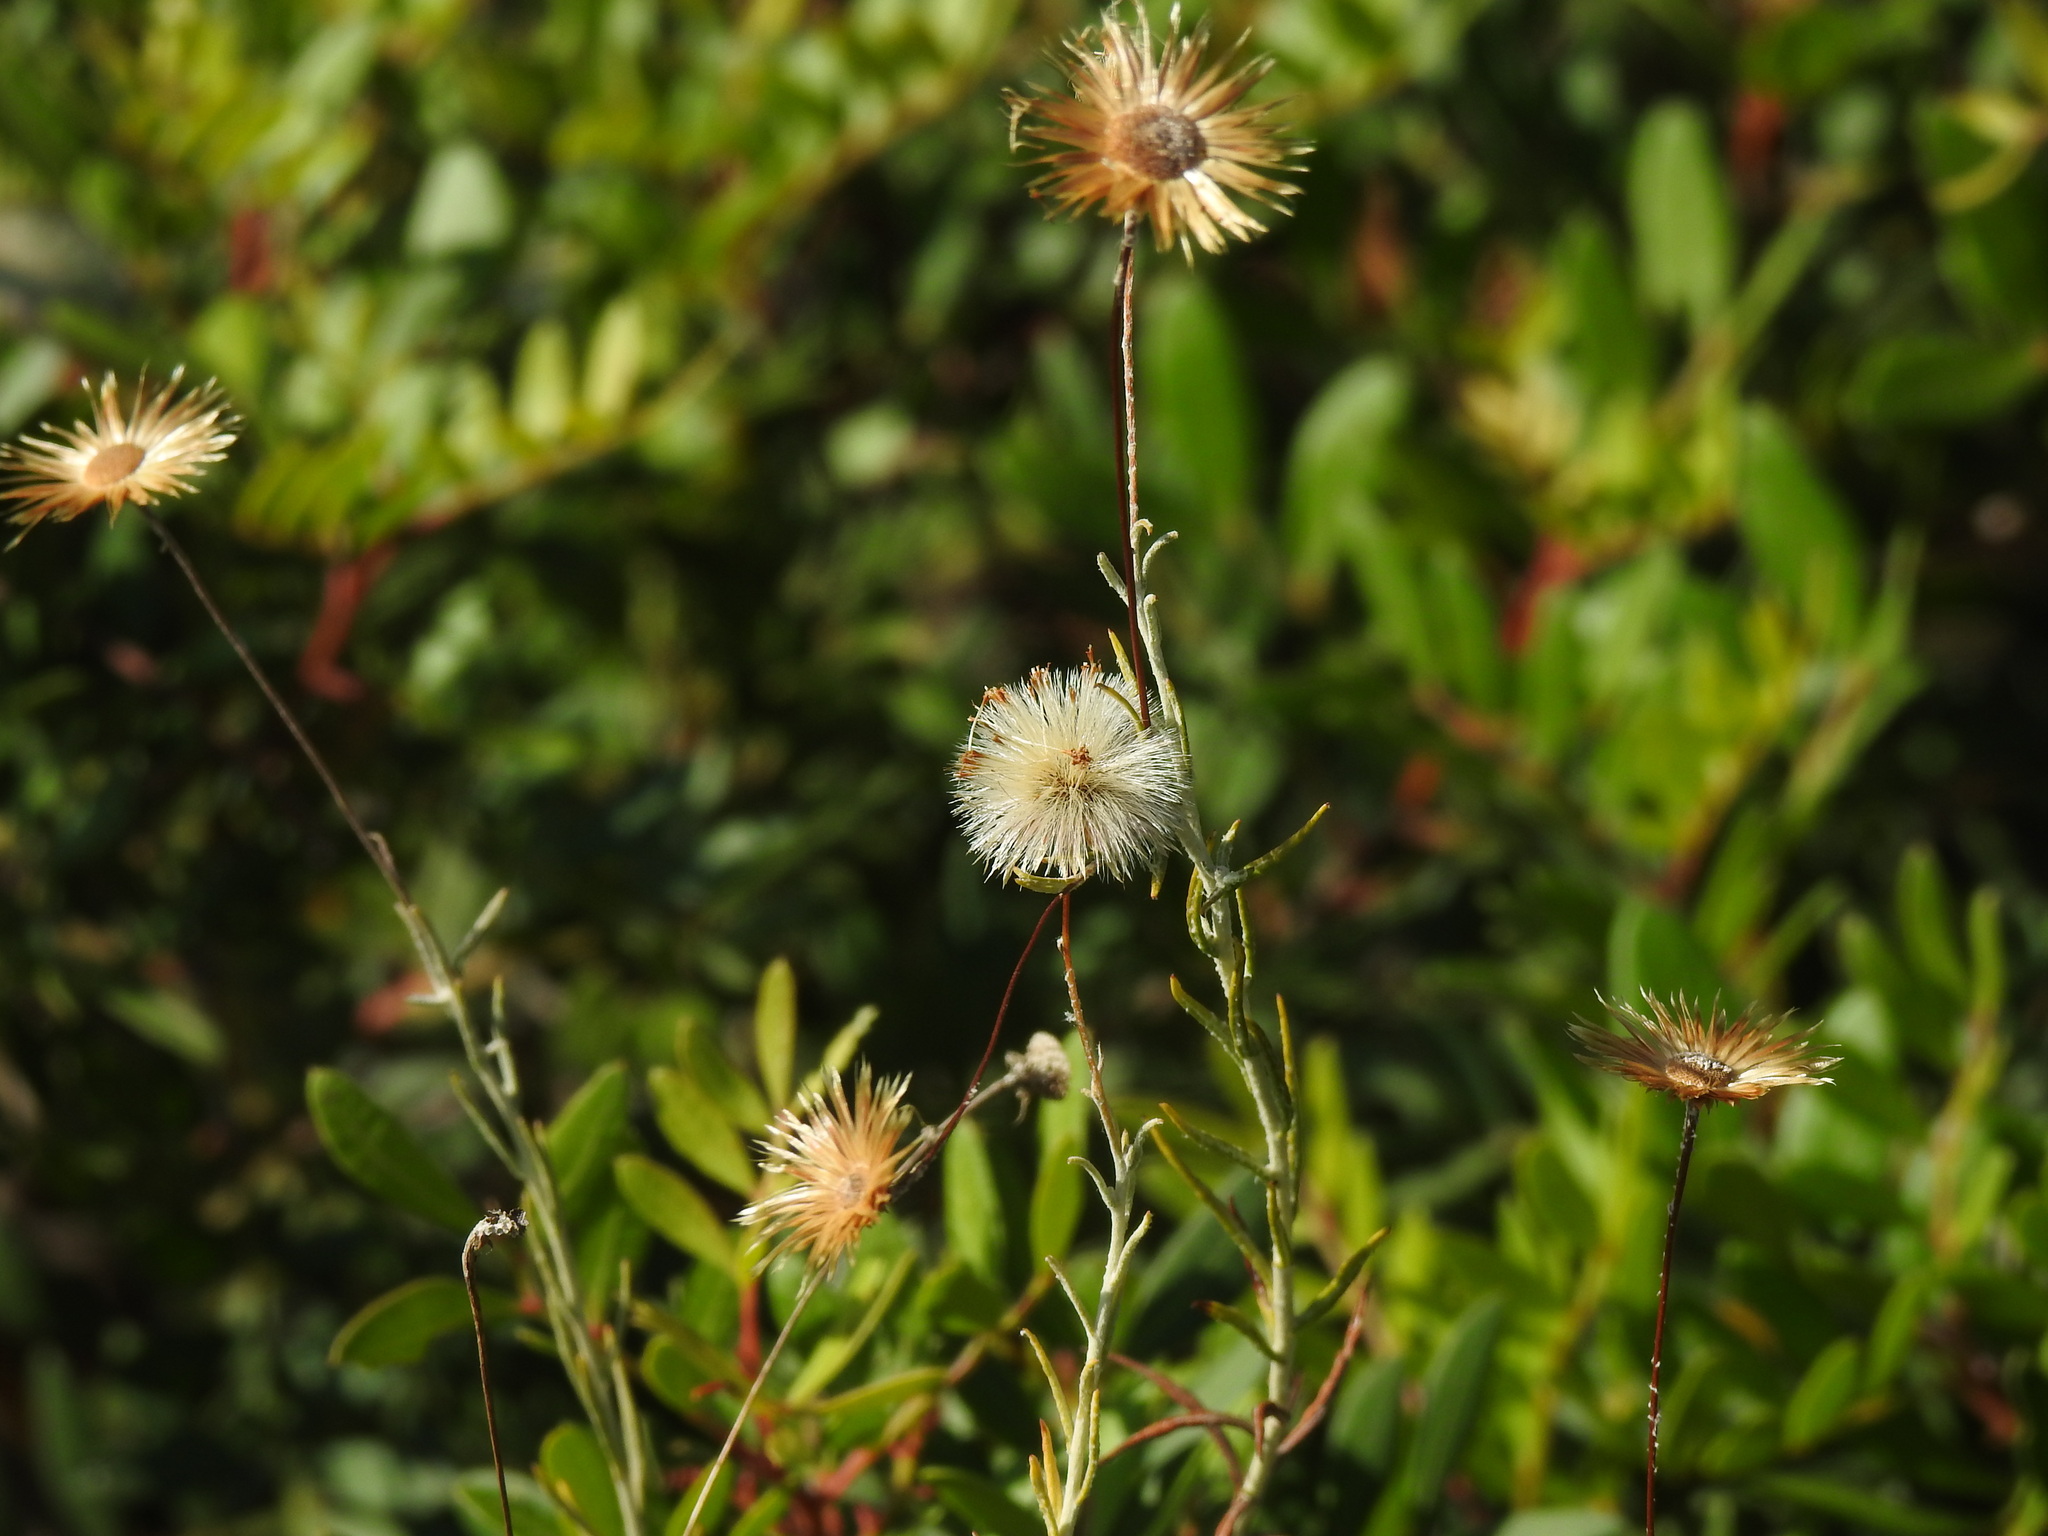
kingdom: Plantae
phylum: Tracheophyta
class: Magnoliopsida
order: Asterales
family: Asteraceae
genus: Phagnalon
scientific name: Phagnalon saxatile
